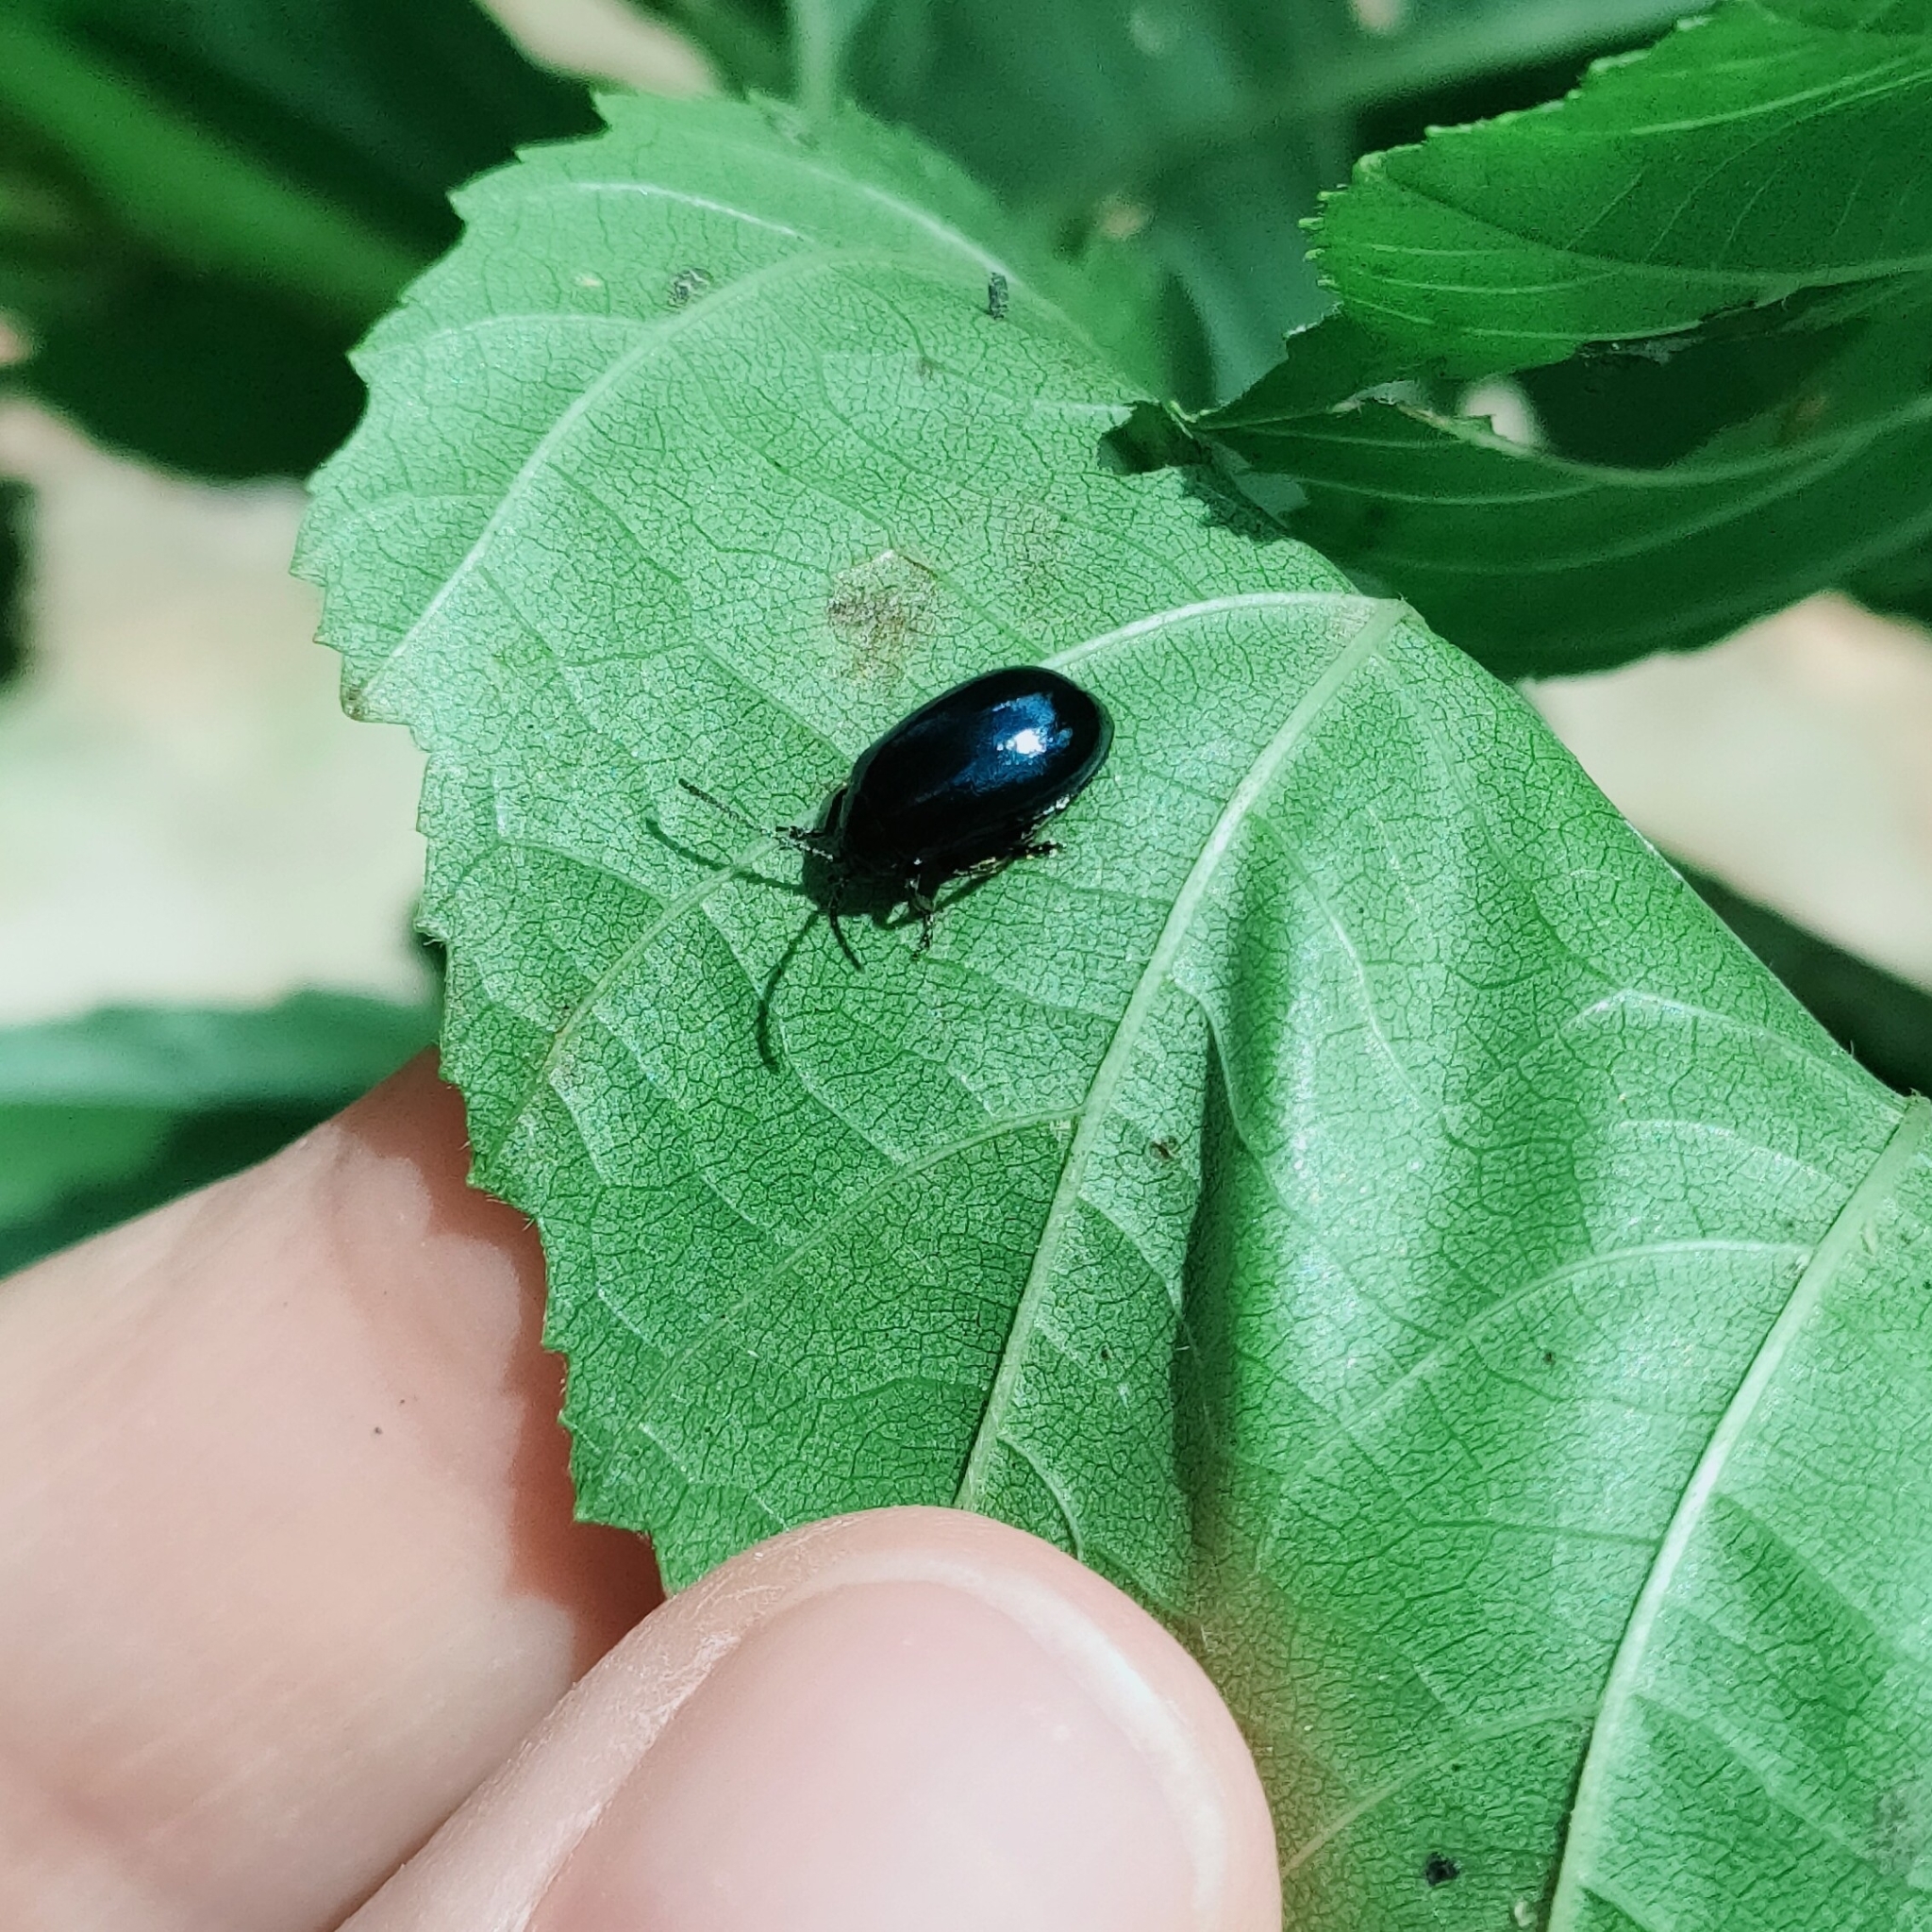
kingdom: Animalia
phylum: Arthropoda
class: Insecta
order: Coleoptera
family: Chrysomelidae
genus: Agelastica
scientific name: Agelastica alni
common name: Alder leaf beetle
